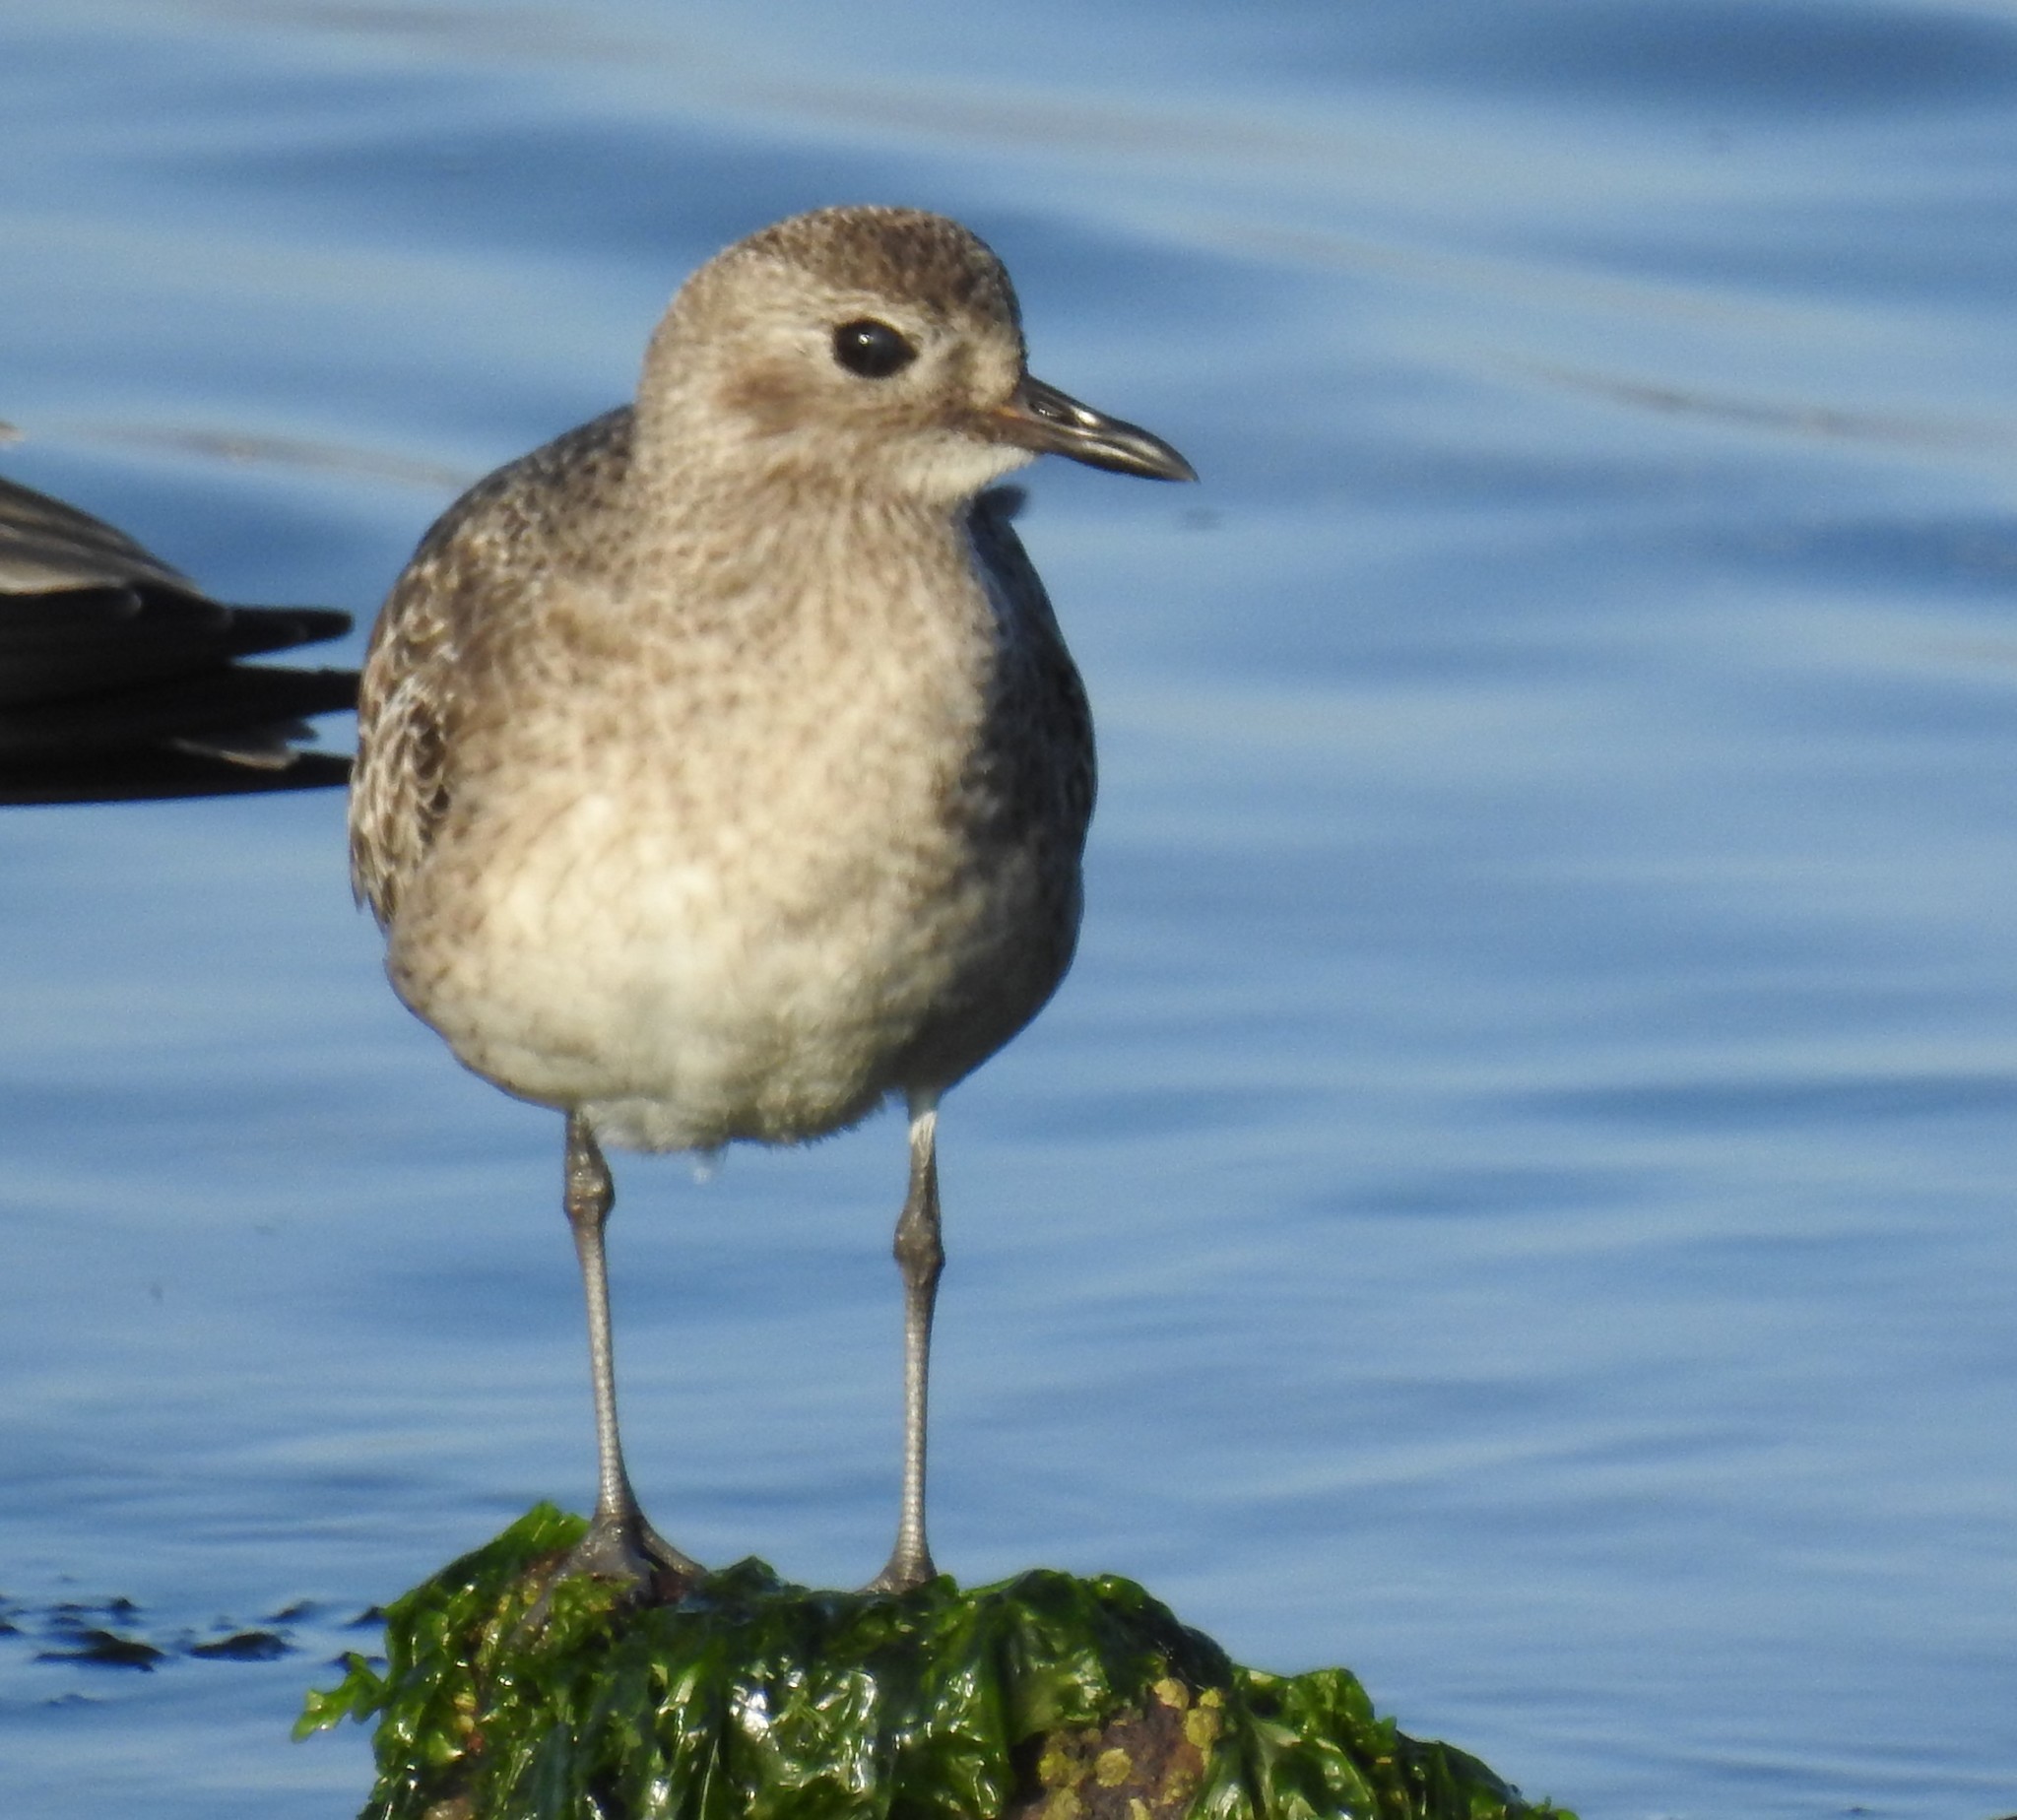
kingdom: Animalia
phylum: Chordata
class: Aves
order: Charadriiformes
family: Charadriidae
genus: Pluvialis
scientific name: Pluvialis squatarola
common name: Grey plover
